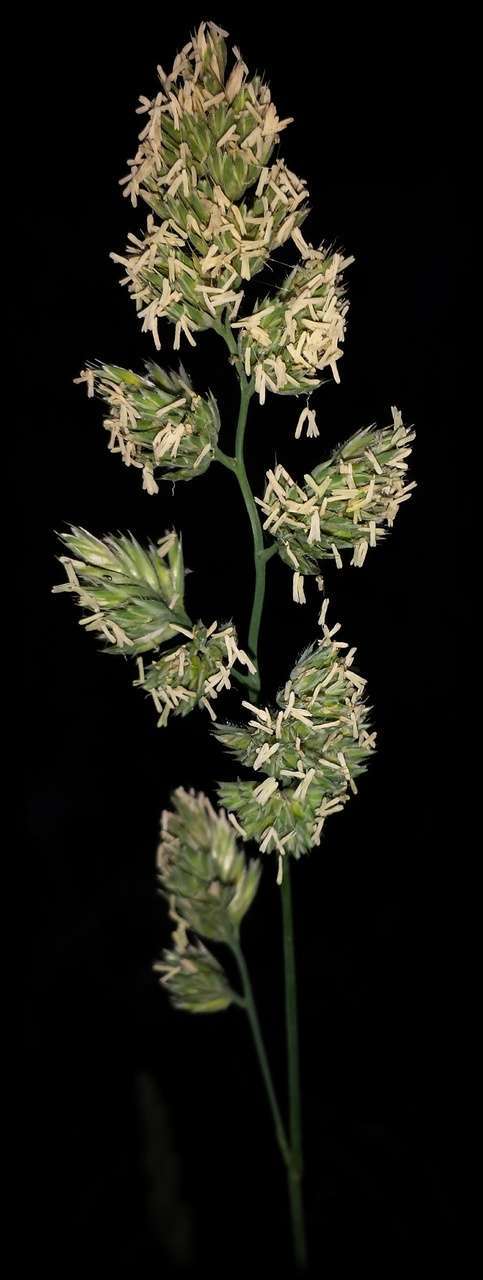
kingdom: Plantae
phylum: Tracheophyta
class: Liliopsida
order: Poales
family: Poaceae
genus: Dactylis
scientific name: Dactylis glomerata
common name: Orchardgrass
